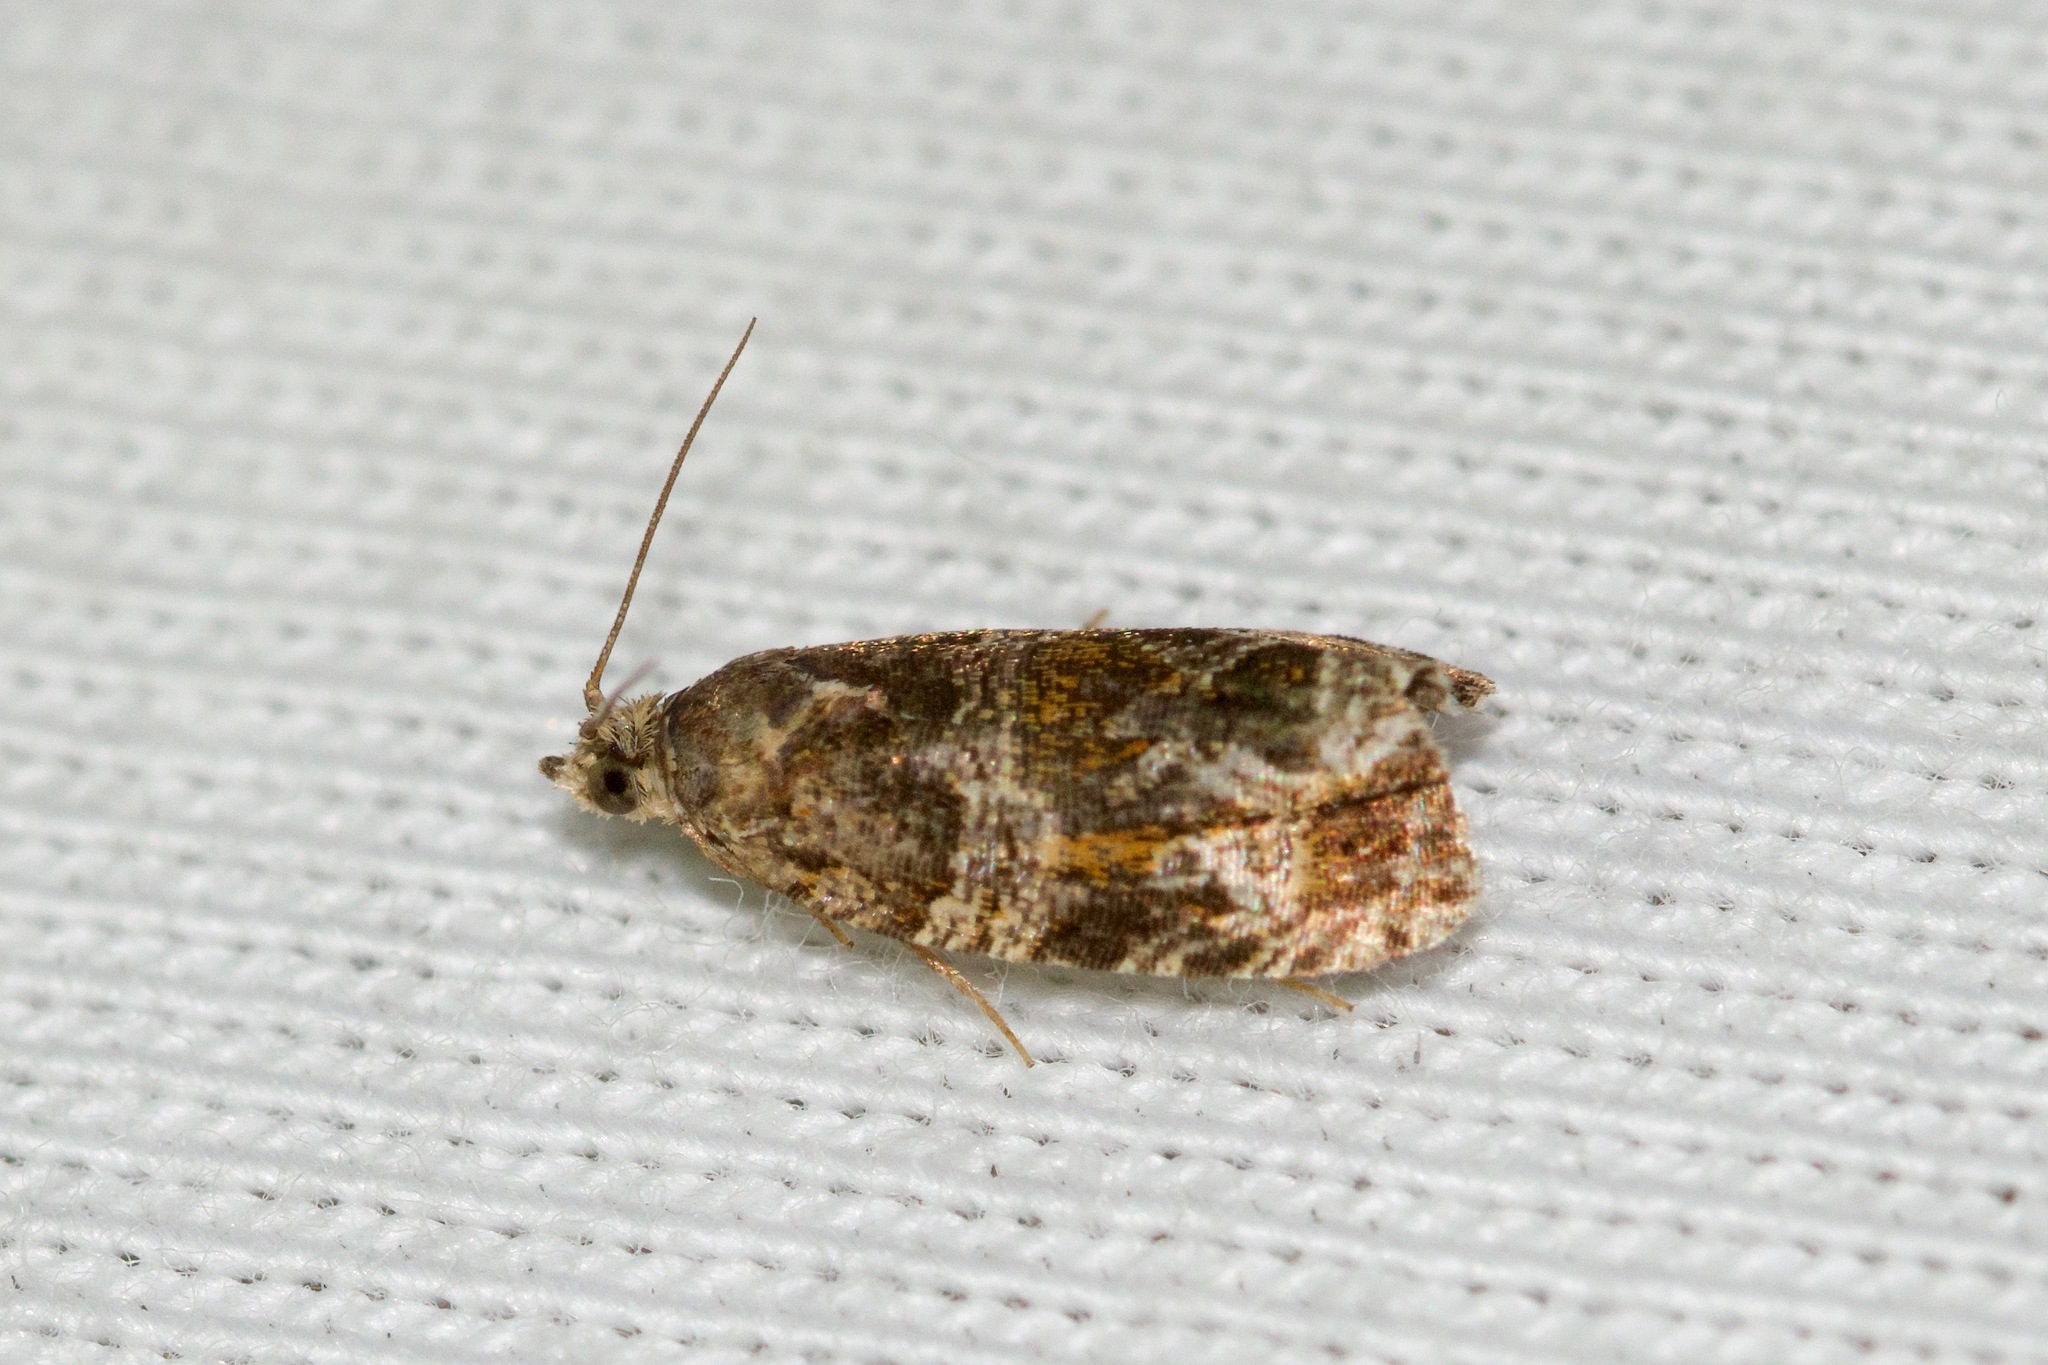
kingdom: Animalia
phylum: Arthropoda
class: Insecta
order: Lepidoptera
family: Tortricidae
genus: Celypha
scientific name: Celypha cespitana
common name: Thyme marble
